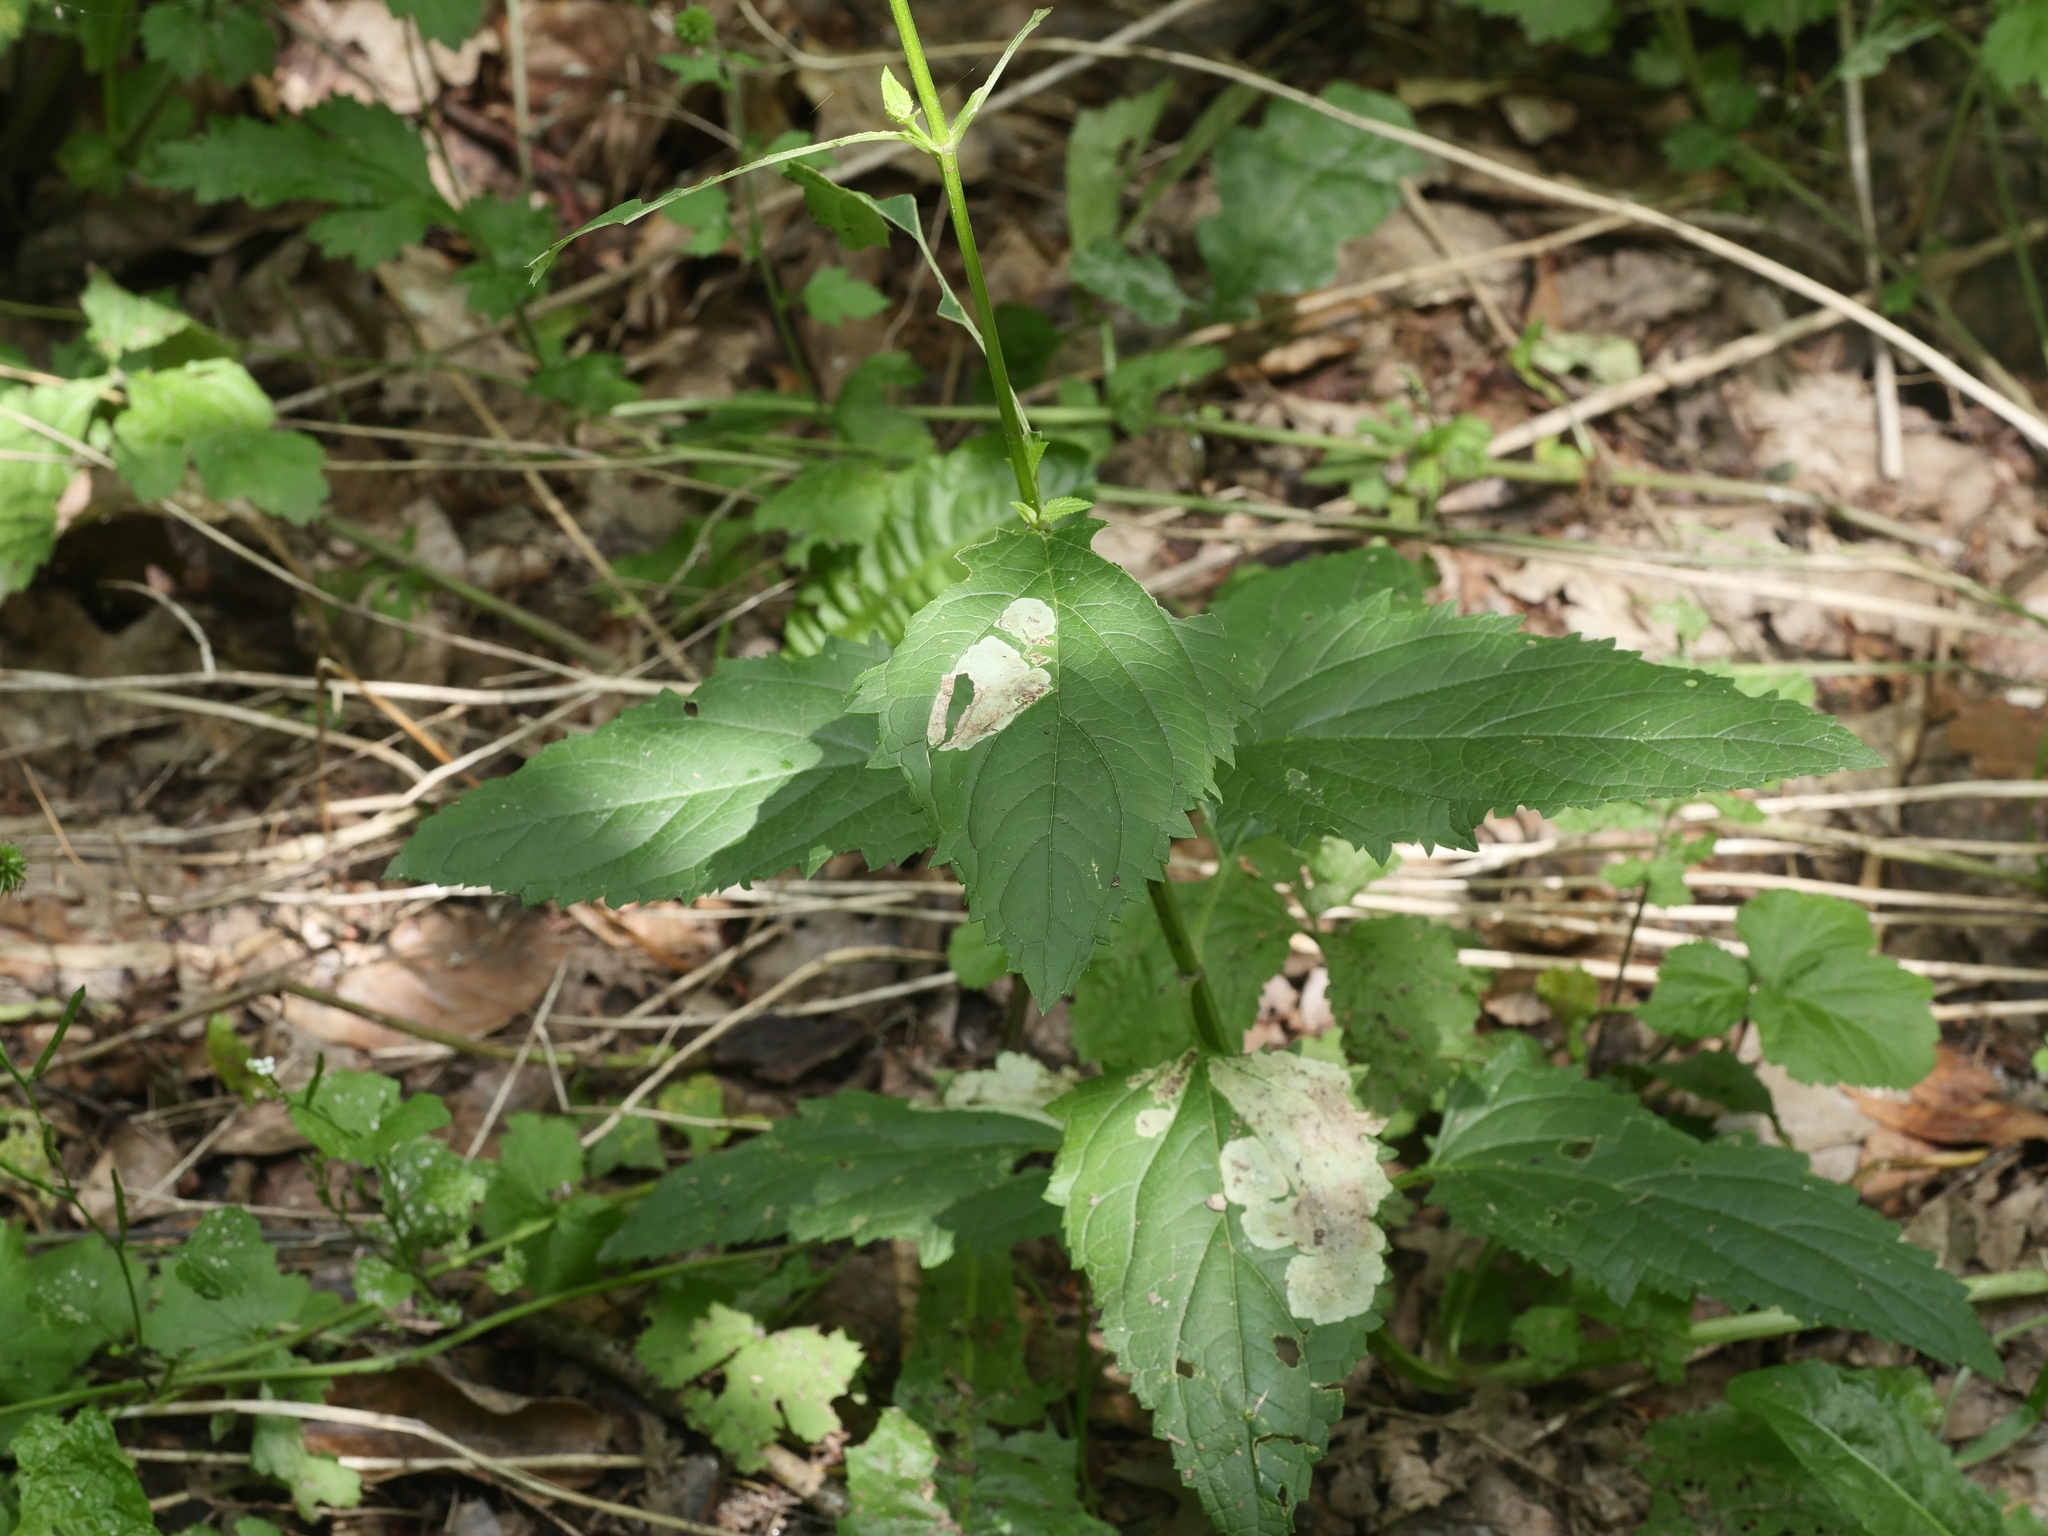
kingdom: Plantae
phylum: Tracheophyta
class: Magnoliopsida
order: Lamiales
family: Scrophulariaceae
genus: Scrophularia
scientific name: Scrophularia nodosa
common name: Common figwort
